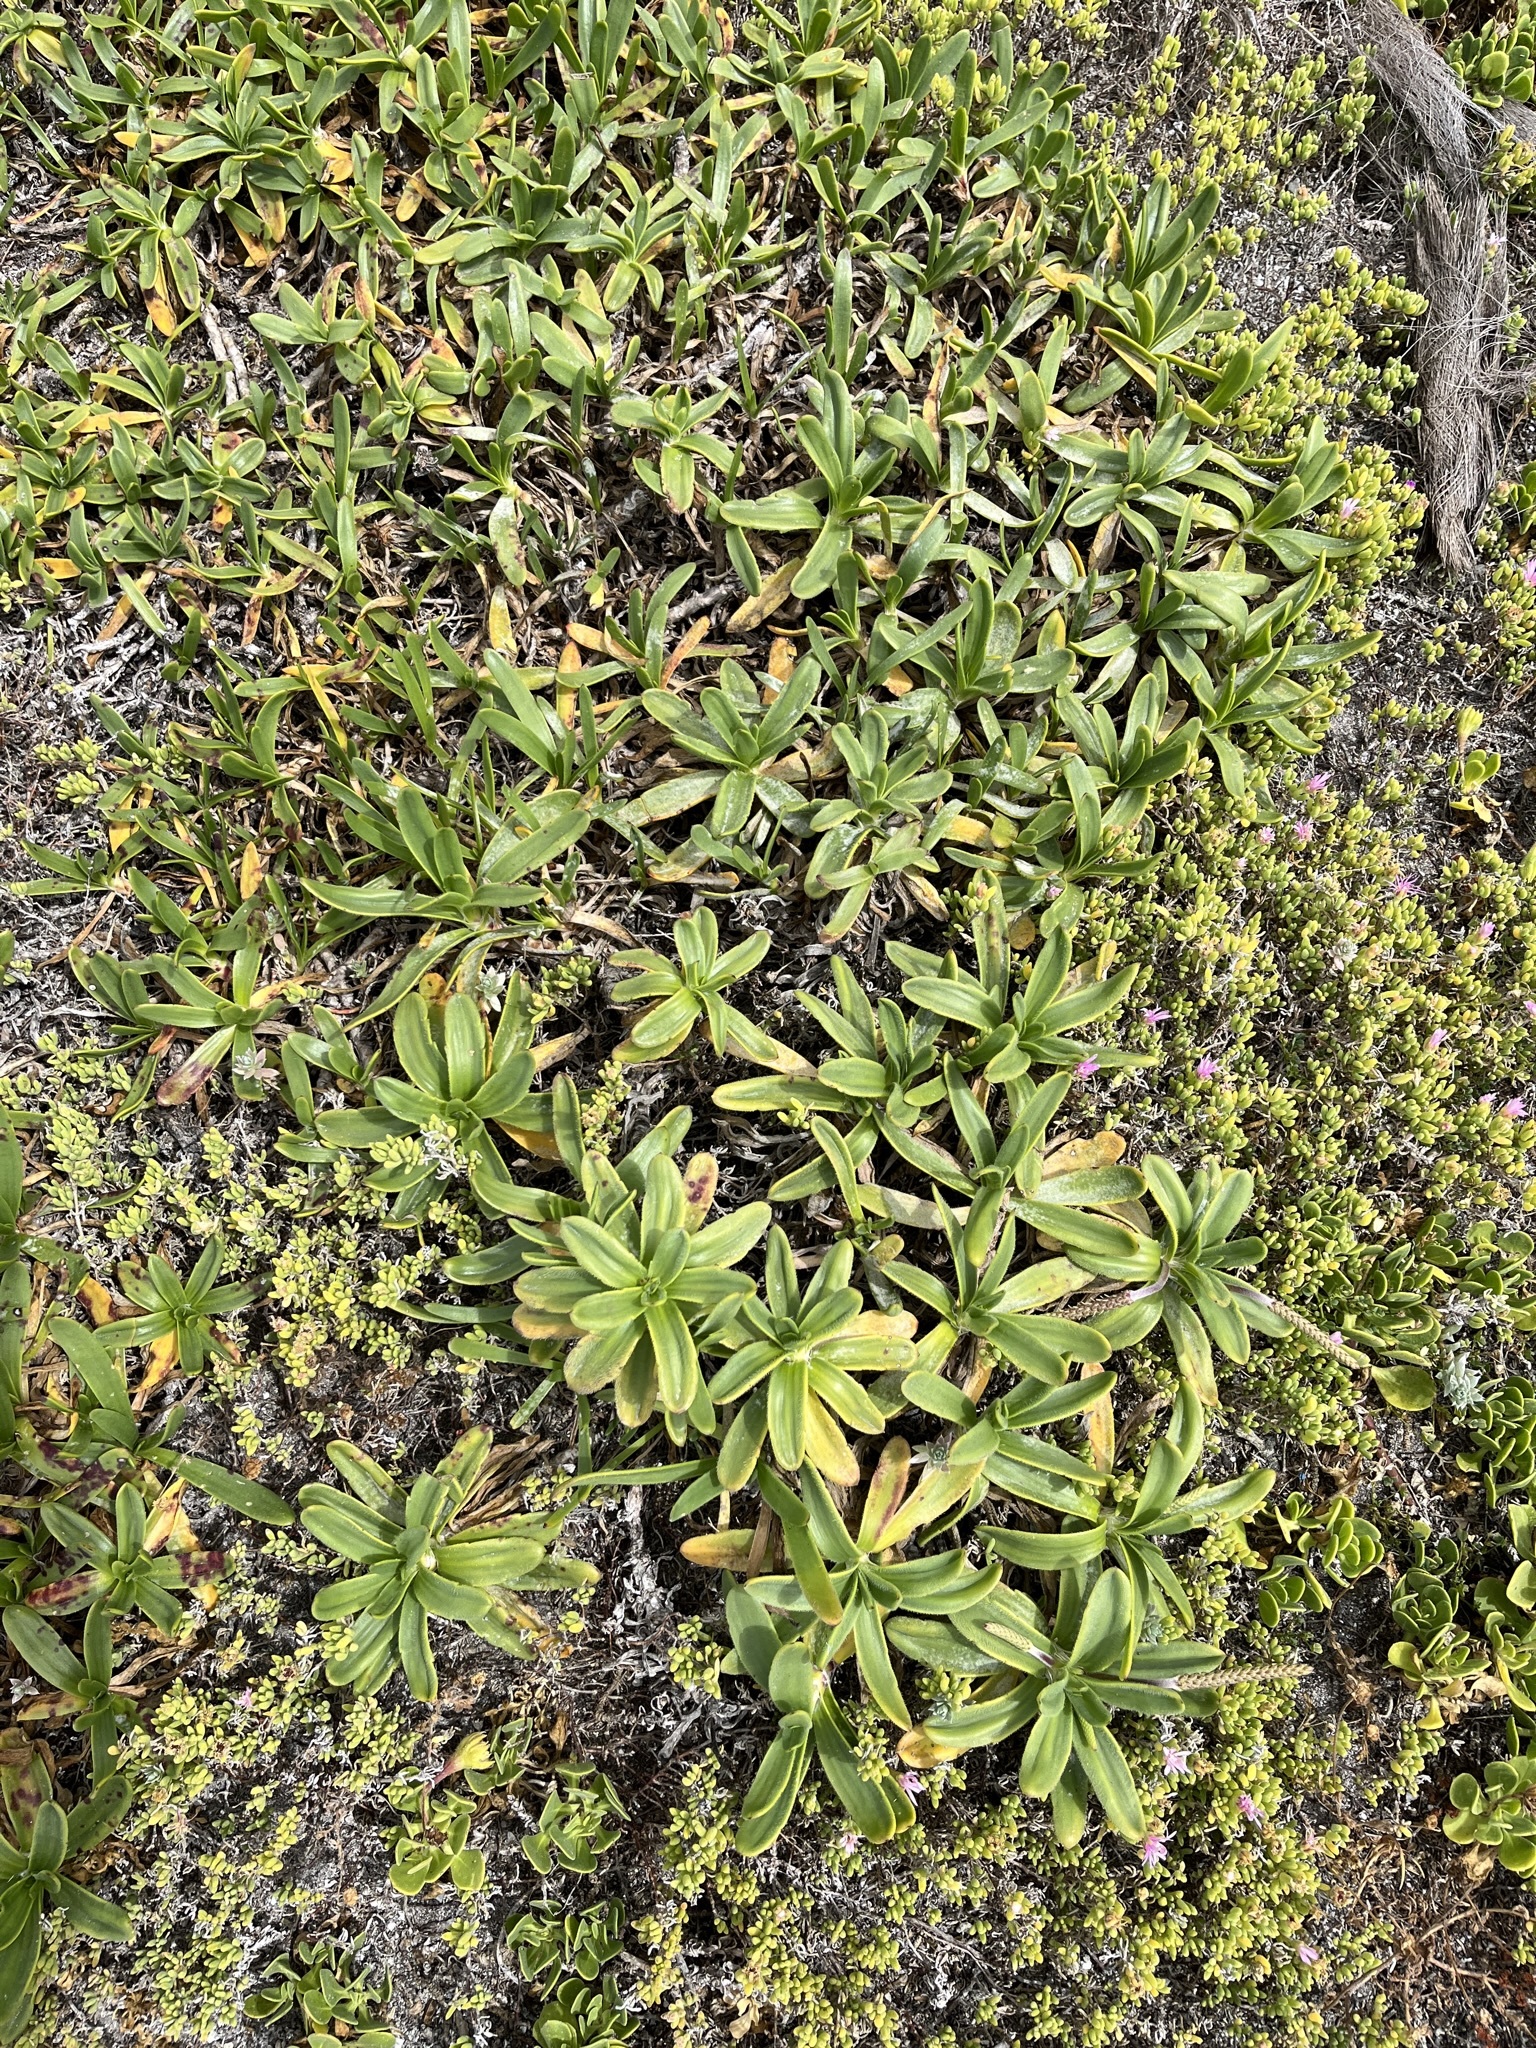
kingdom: Plantae
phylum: Tracheophyta
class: Magnoliopsida
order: Lamiales
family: Plantaginaceae
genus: Plantago
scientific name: Plantago carnosa
